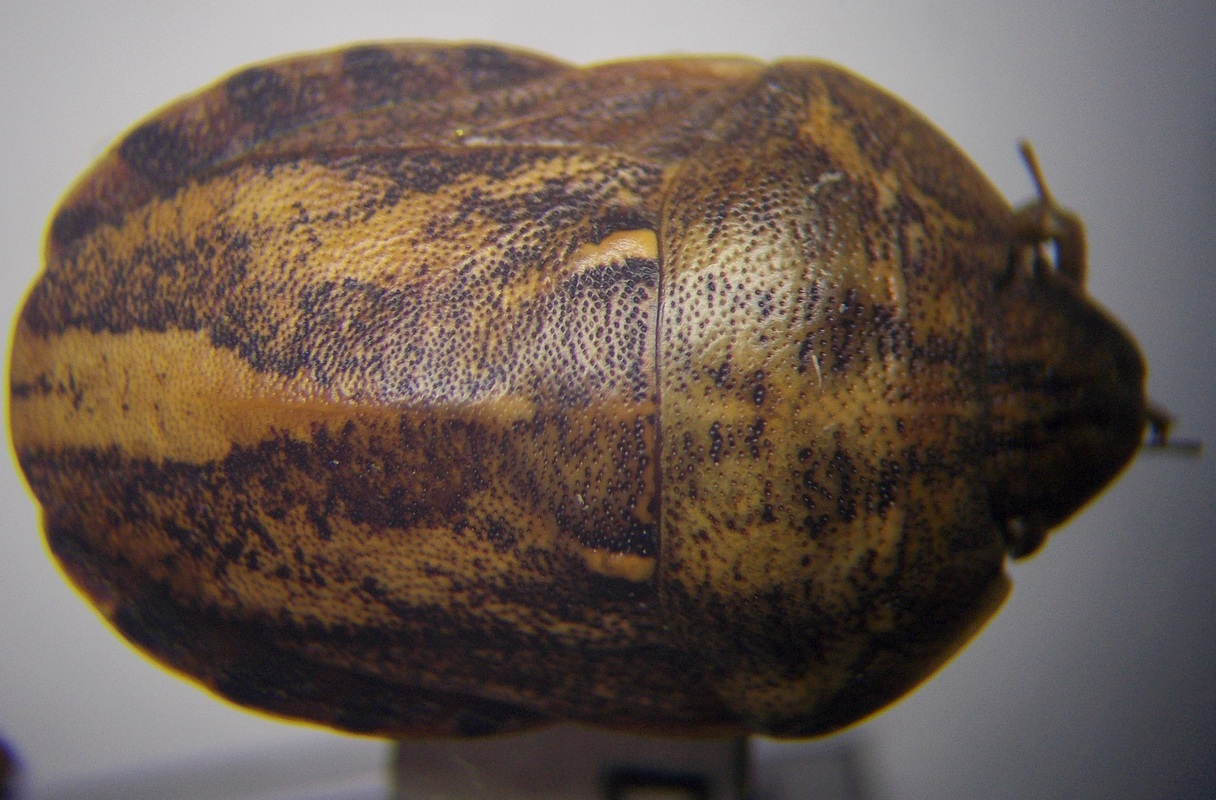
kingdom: Animalia
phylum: Arthropoda
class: Insecta
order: Hemiptera
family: Scutelleridae
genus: Eurygaster
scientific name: Eurygaster integriceps
